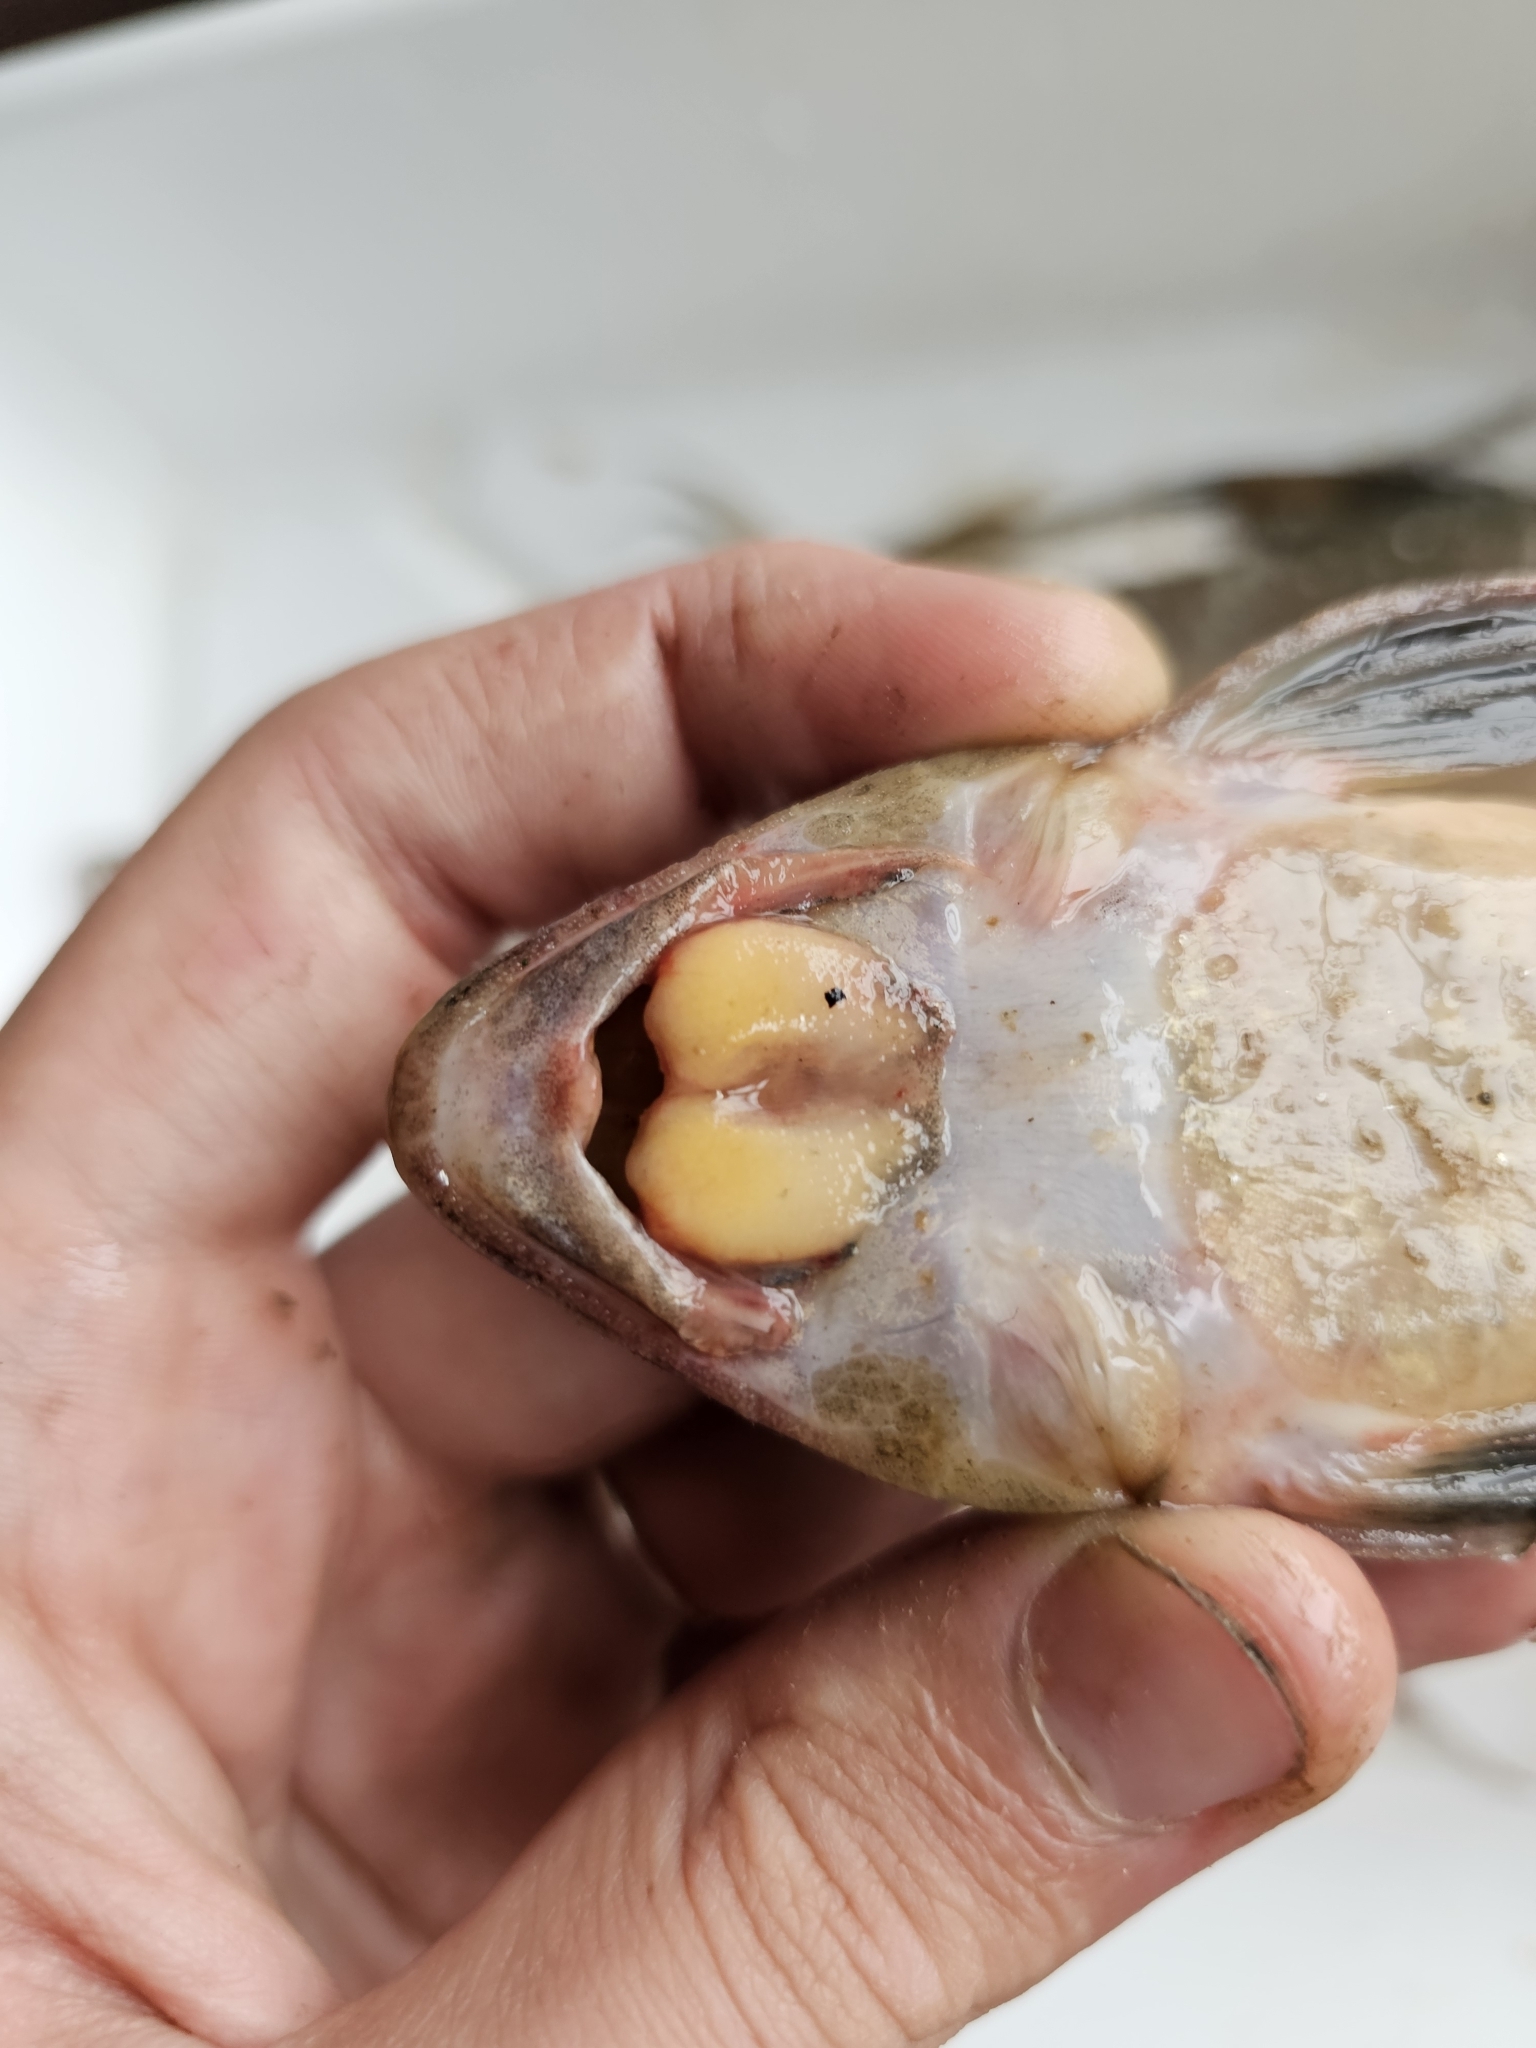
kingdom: Animalia
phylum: Chordata
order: Siluriformes
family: Loricariidae
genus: Loricariichthys
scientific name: Loricariichthys melanocheilus
